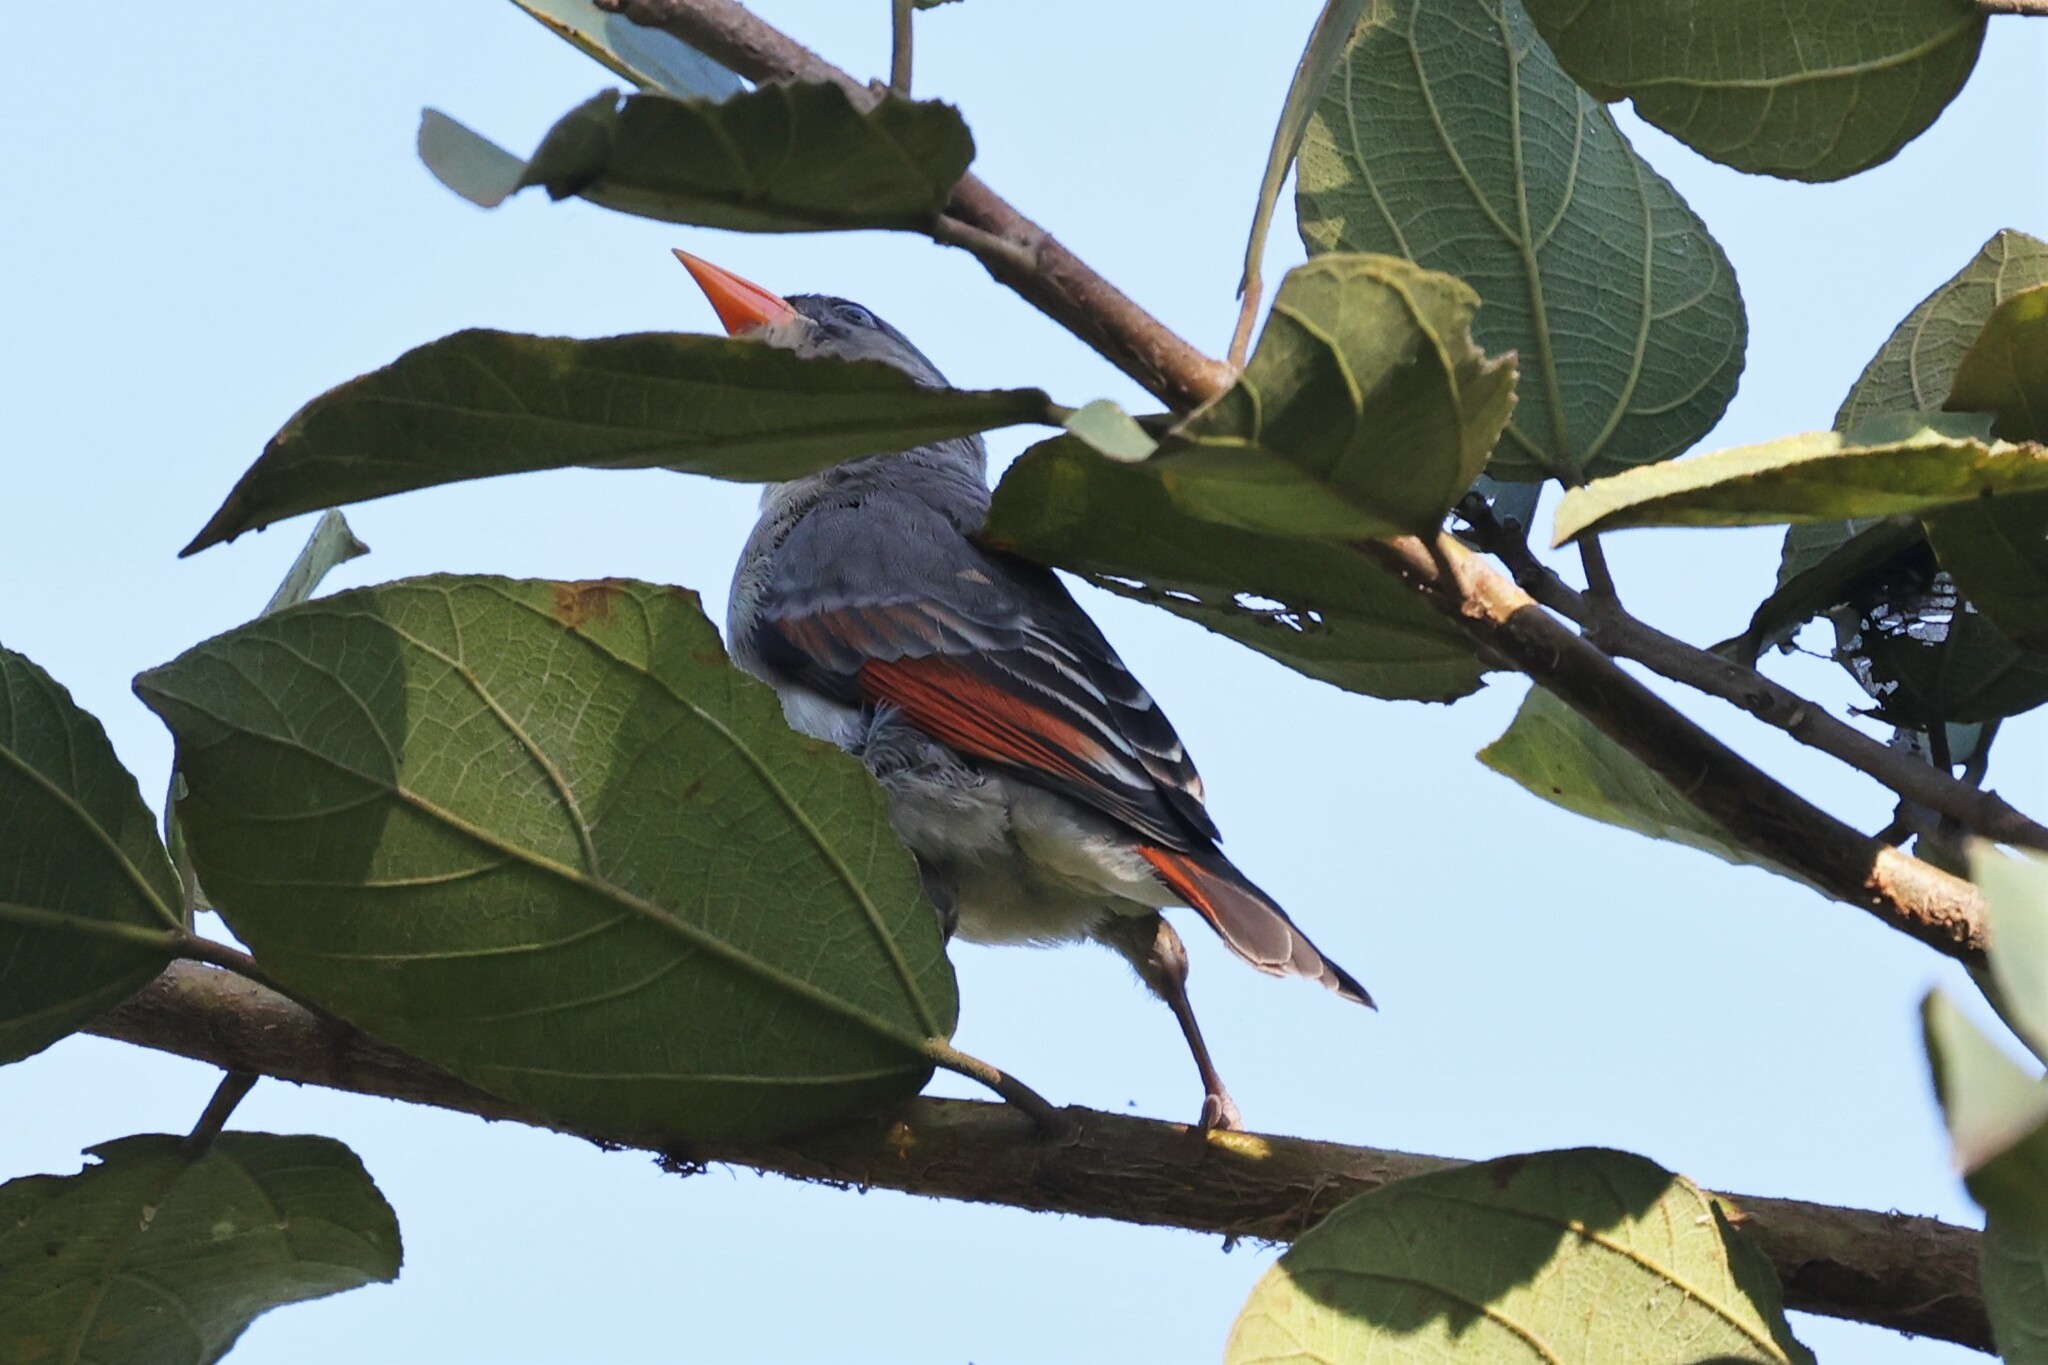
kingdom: Animalia
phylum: Chordata
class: Aves
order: Passeriformes
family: Ploceidae
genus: Anaplectes
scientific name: Anaplectes rubriceps
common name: Red-headed weaver
